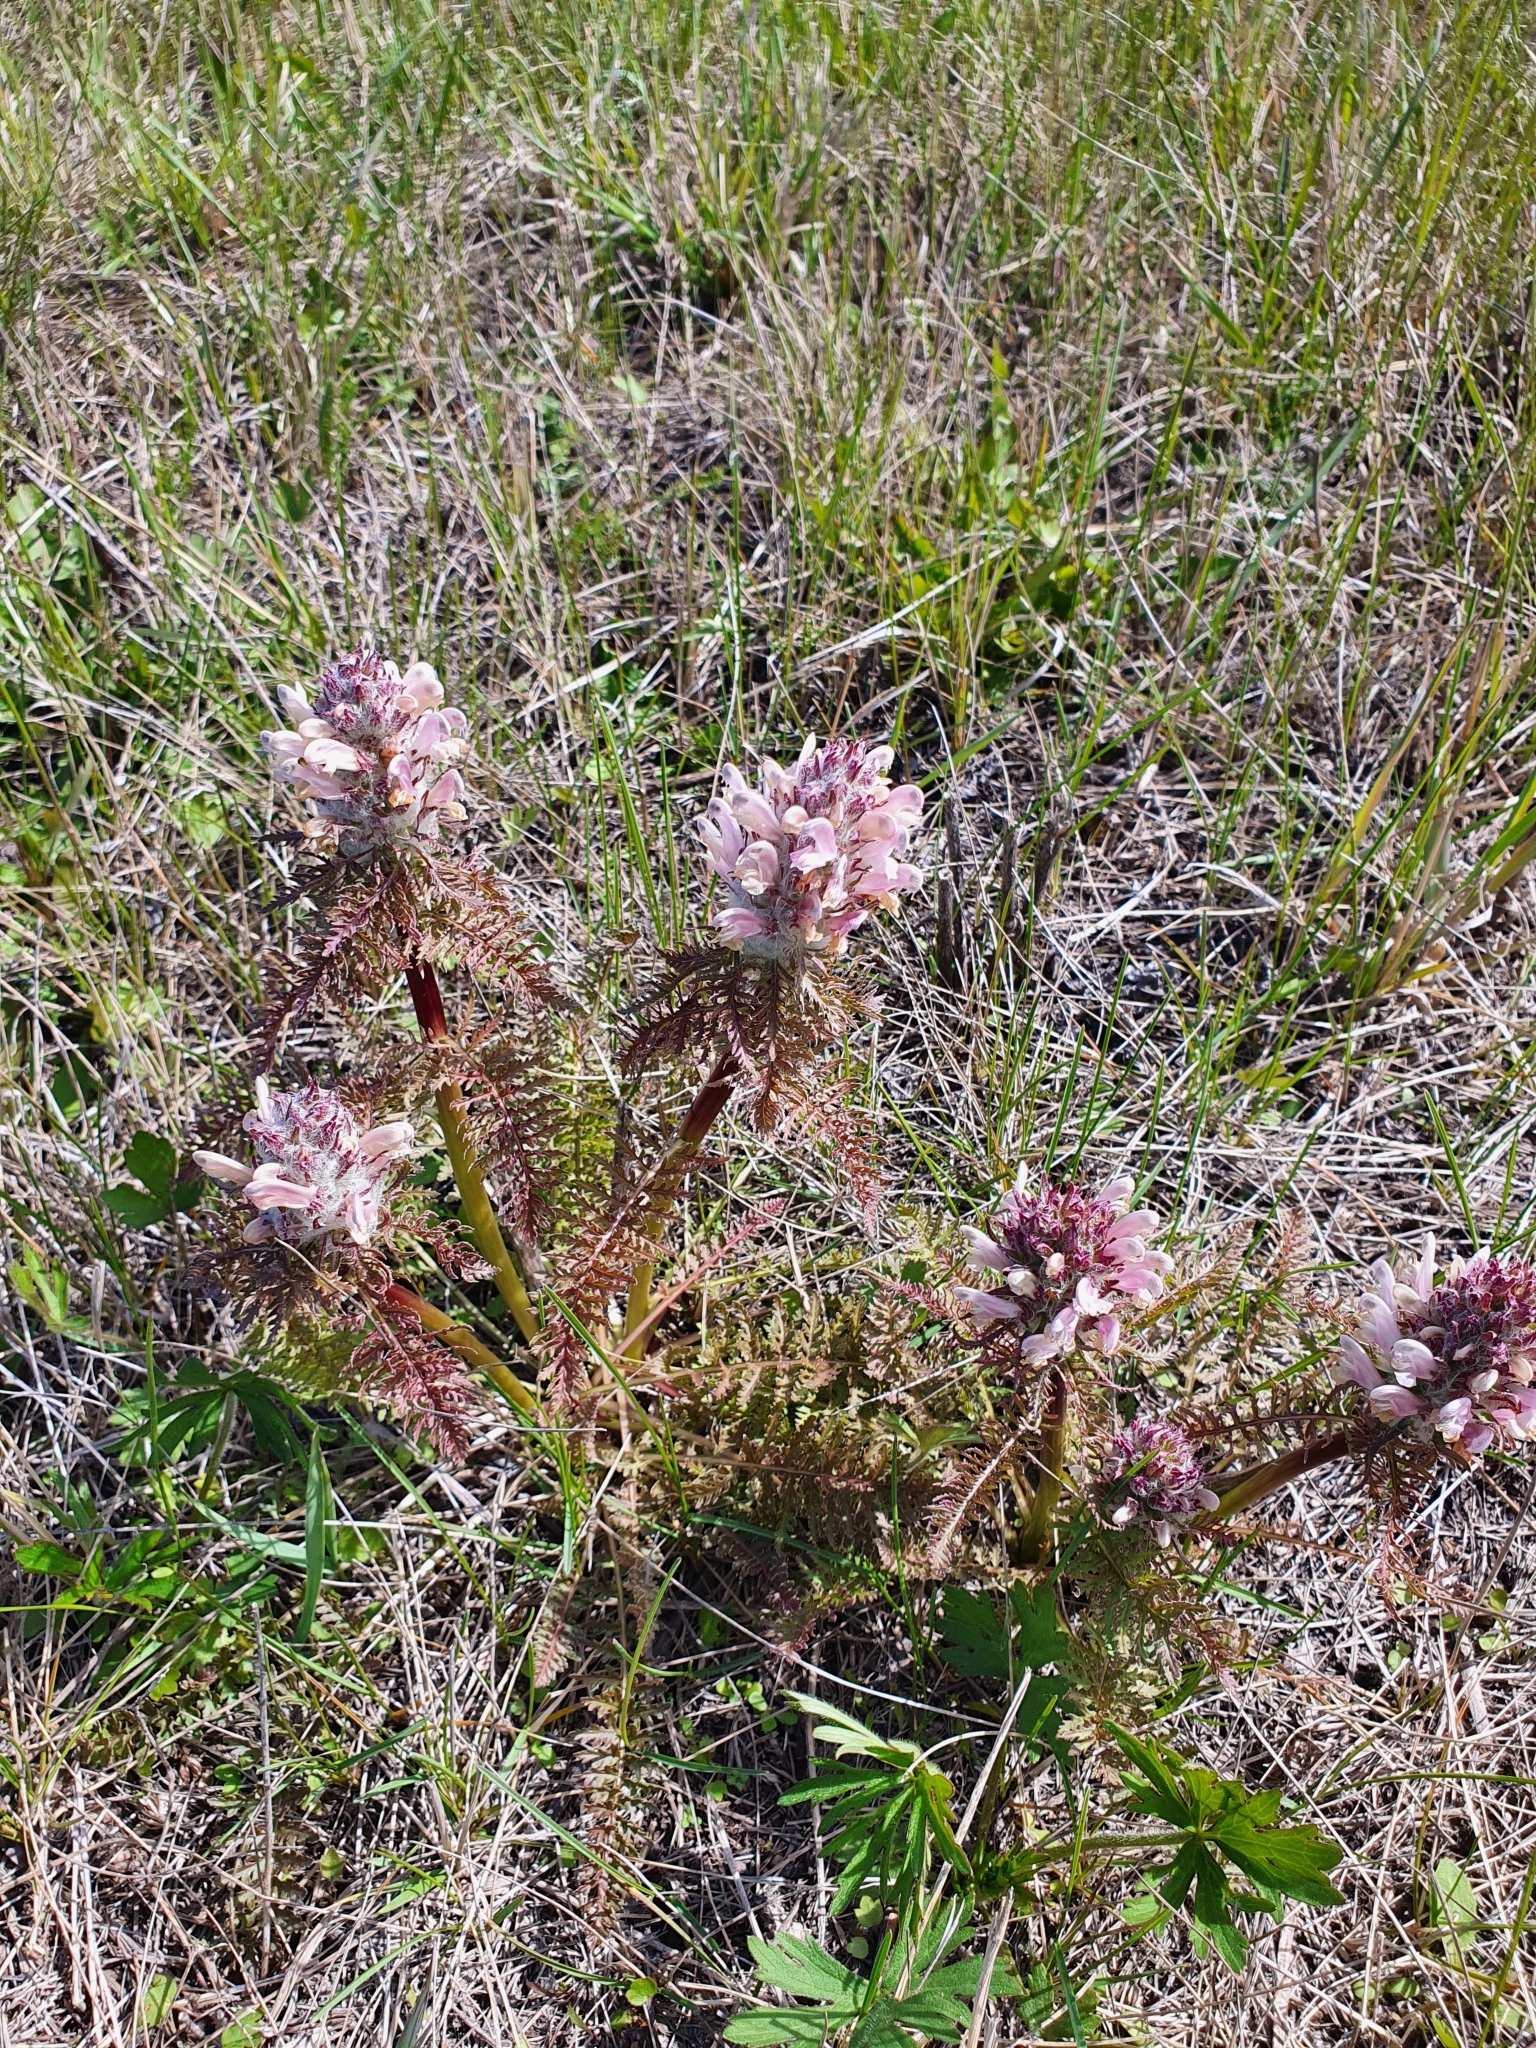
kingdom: Plantae
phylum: Tracheophyta
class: Magnoliopsida
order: Lamiales
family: Orobanchaceae
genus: Pedicularis
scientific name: Pedicularis dasystachys
